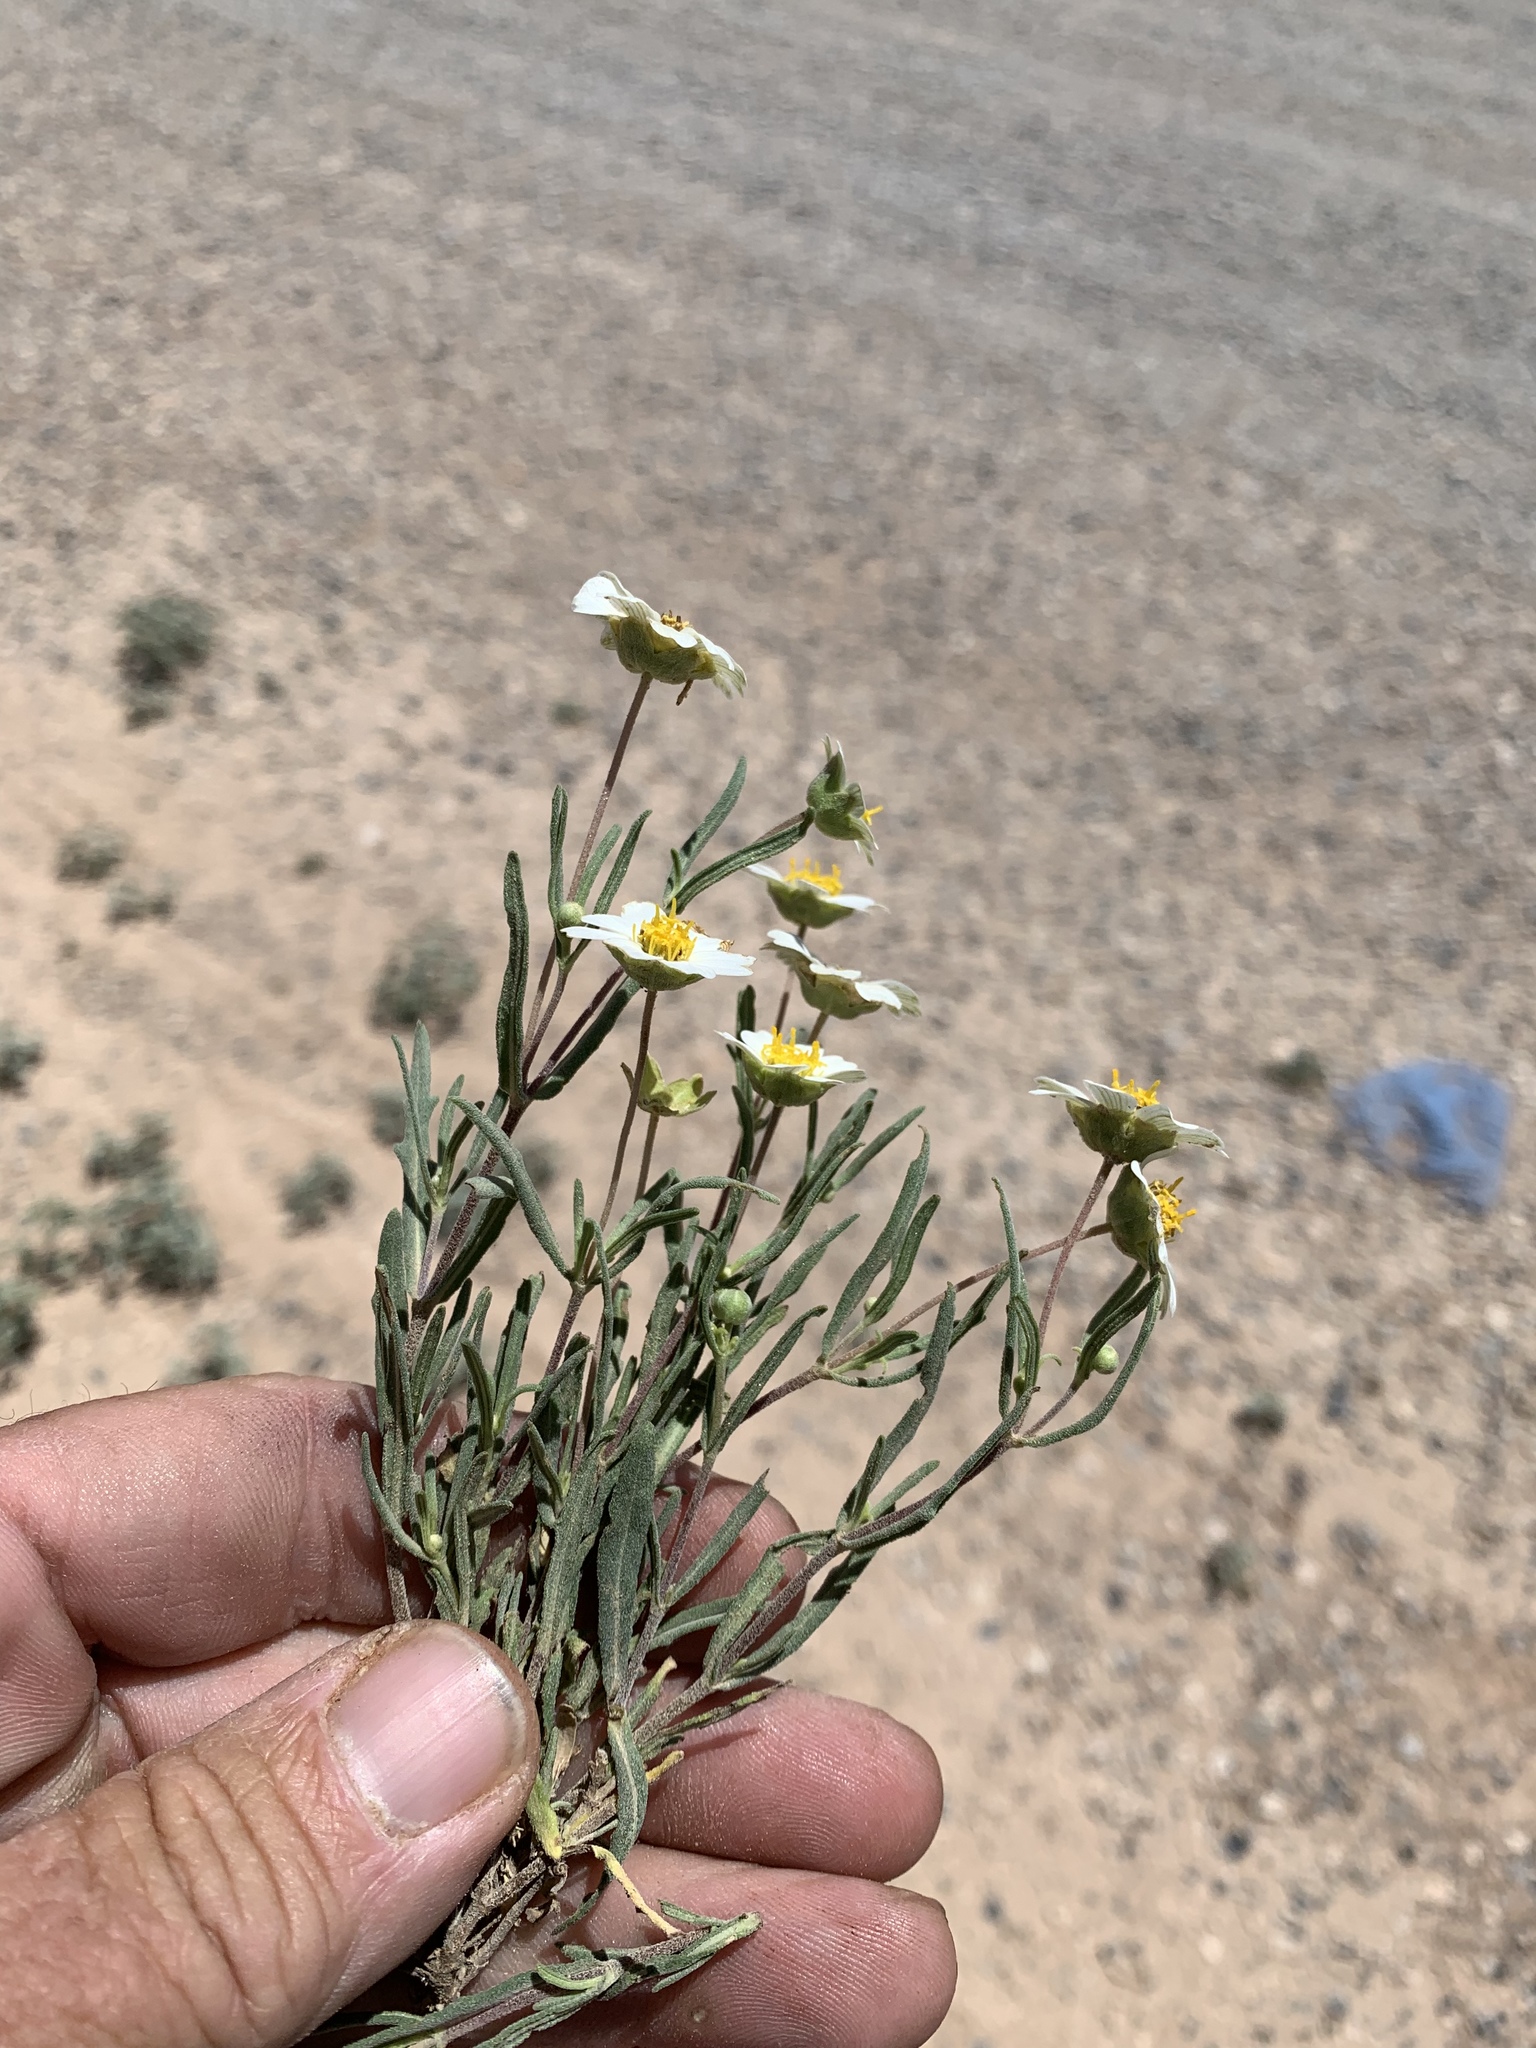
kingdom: Plantae
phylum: Tracheophyta
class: Magnoliopsida
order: Asterales
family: Asteraceae
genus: Melampodium
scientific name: Melampodium leucanthum
